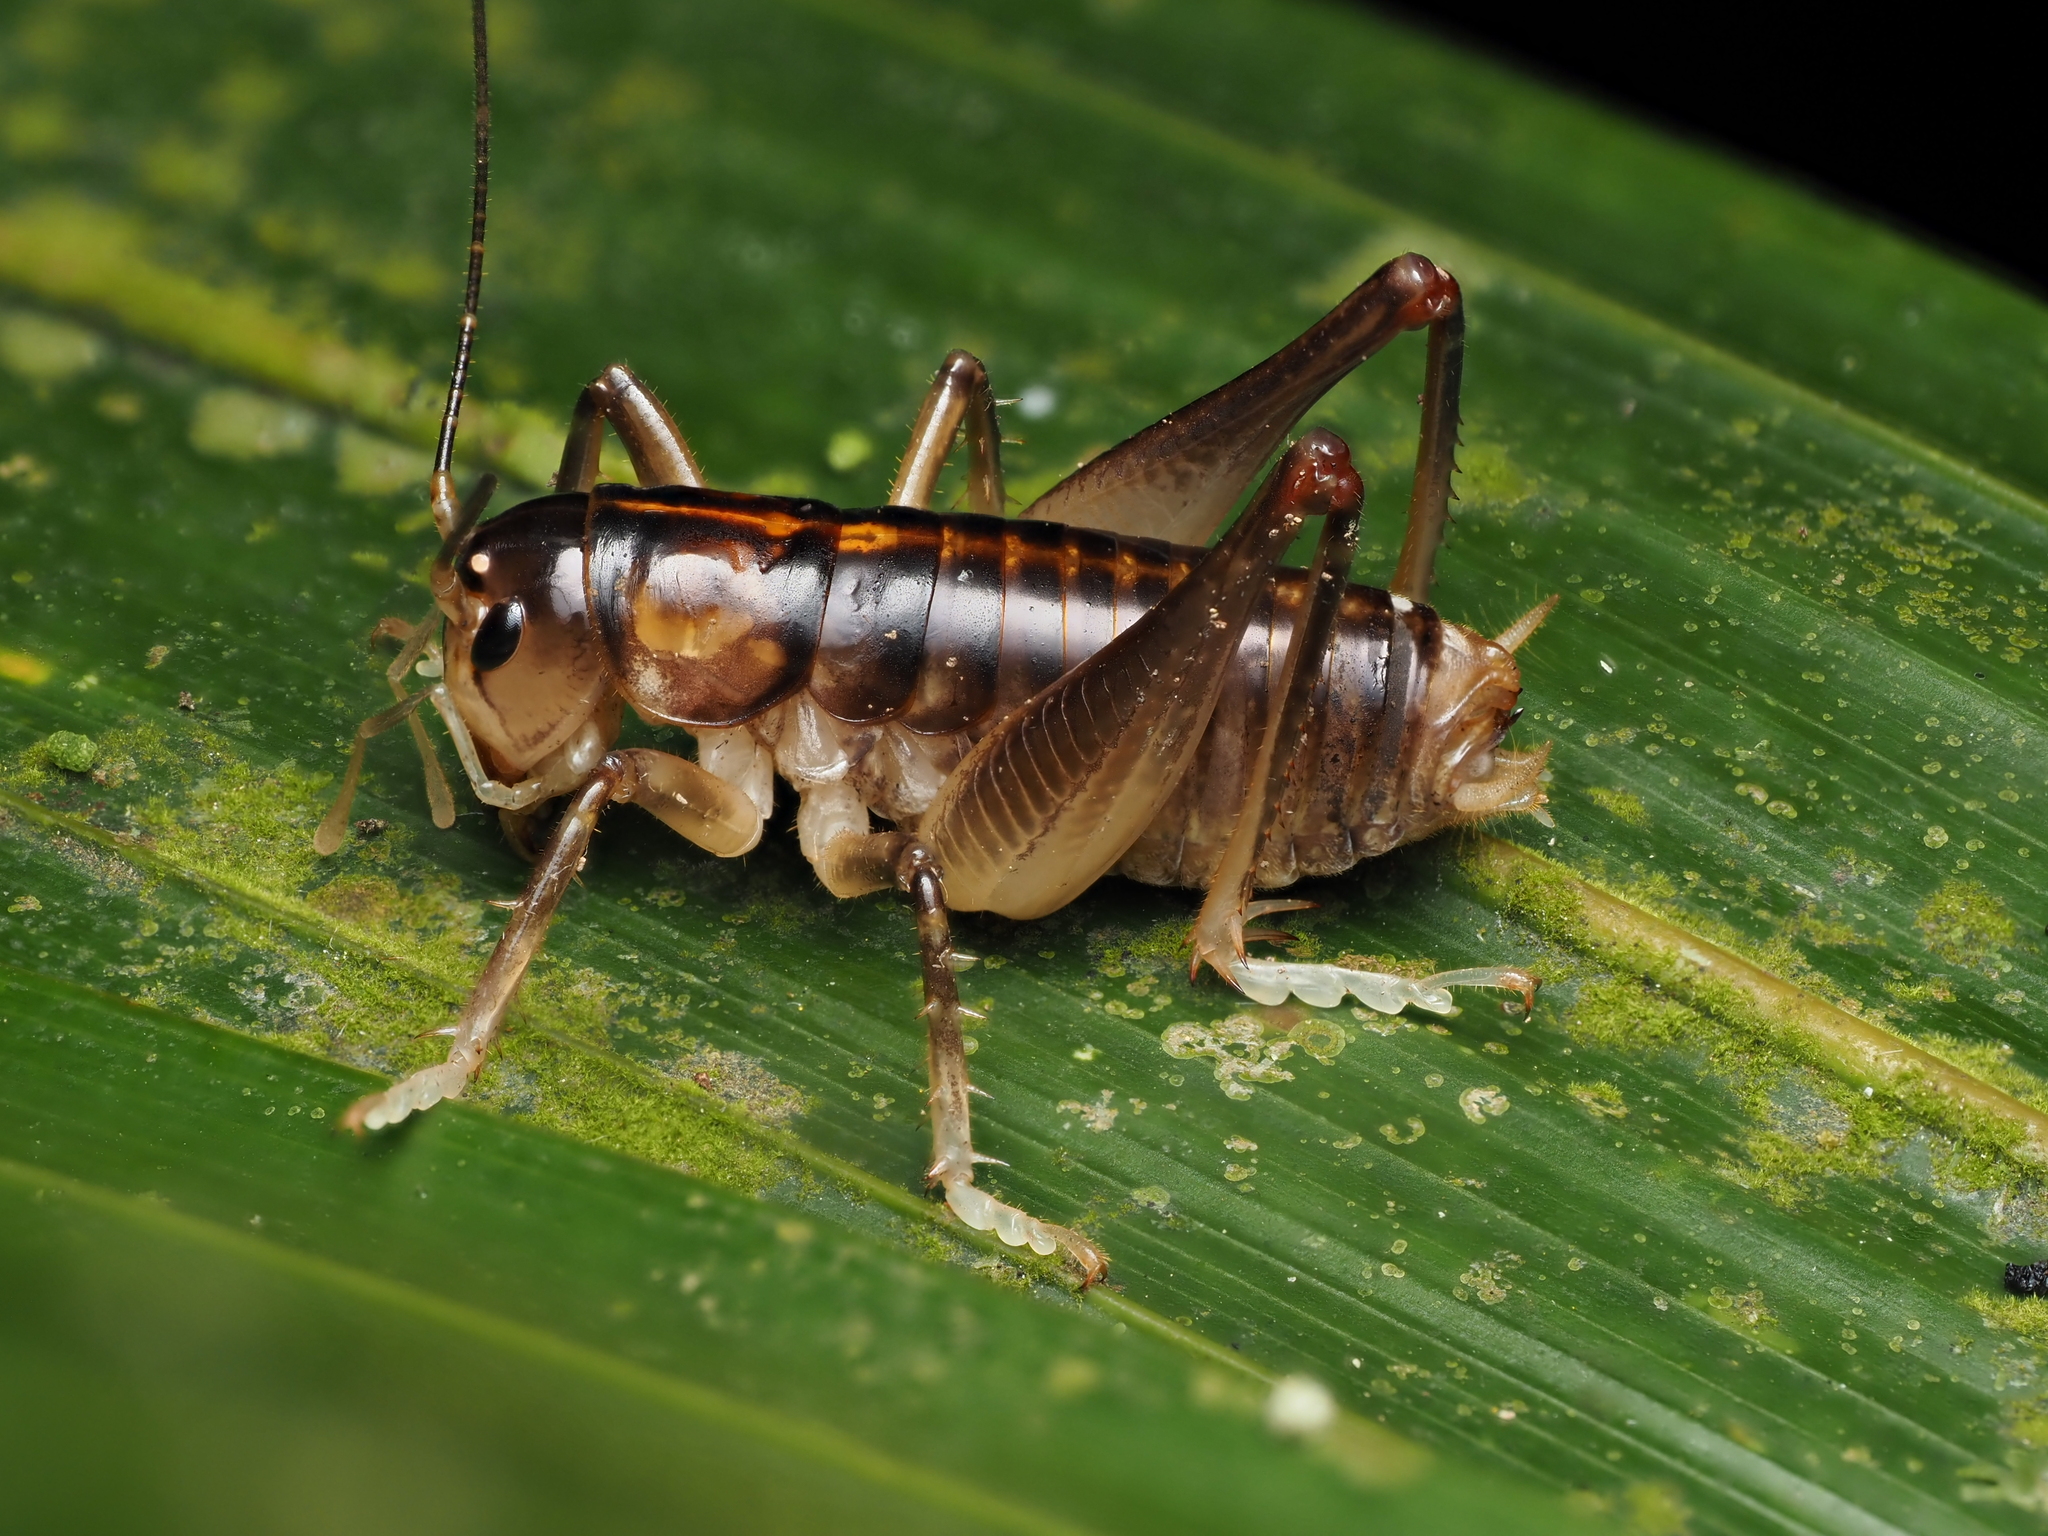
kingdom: Animalia
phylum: Arthropoda
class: Insecta
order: Orthoptera
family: Anostostomatidae
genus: Hemiandrus
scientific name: Hemiandrus pallitarsis
